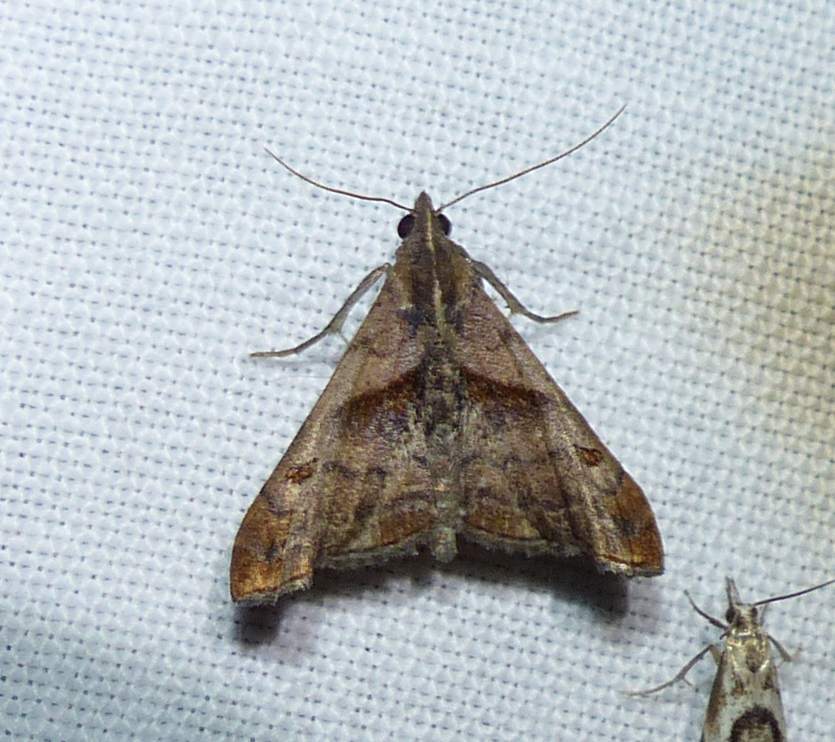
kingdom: Animalia
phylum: Arthropoda
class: Insecta
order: Lepidoptera
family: Erebidae
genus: Palthis
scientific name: Palthis angulalis
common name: Dark-spotted palthis moth
